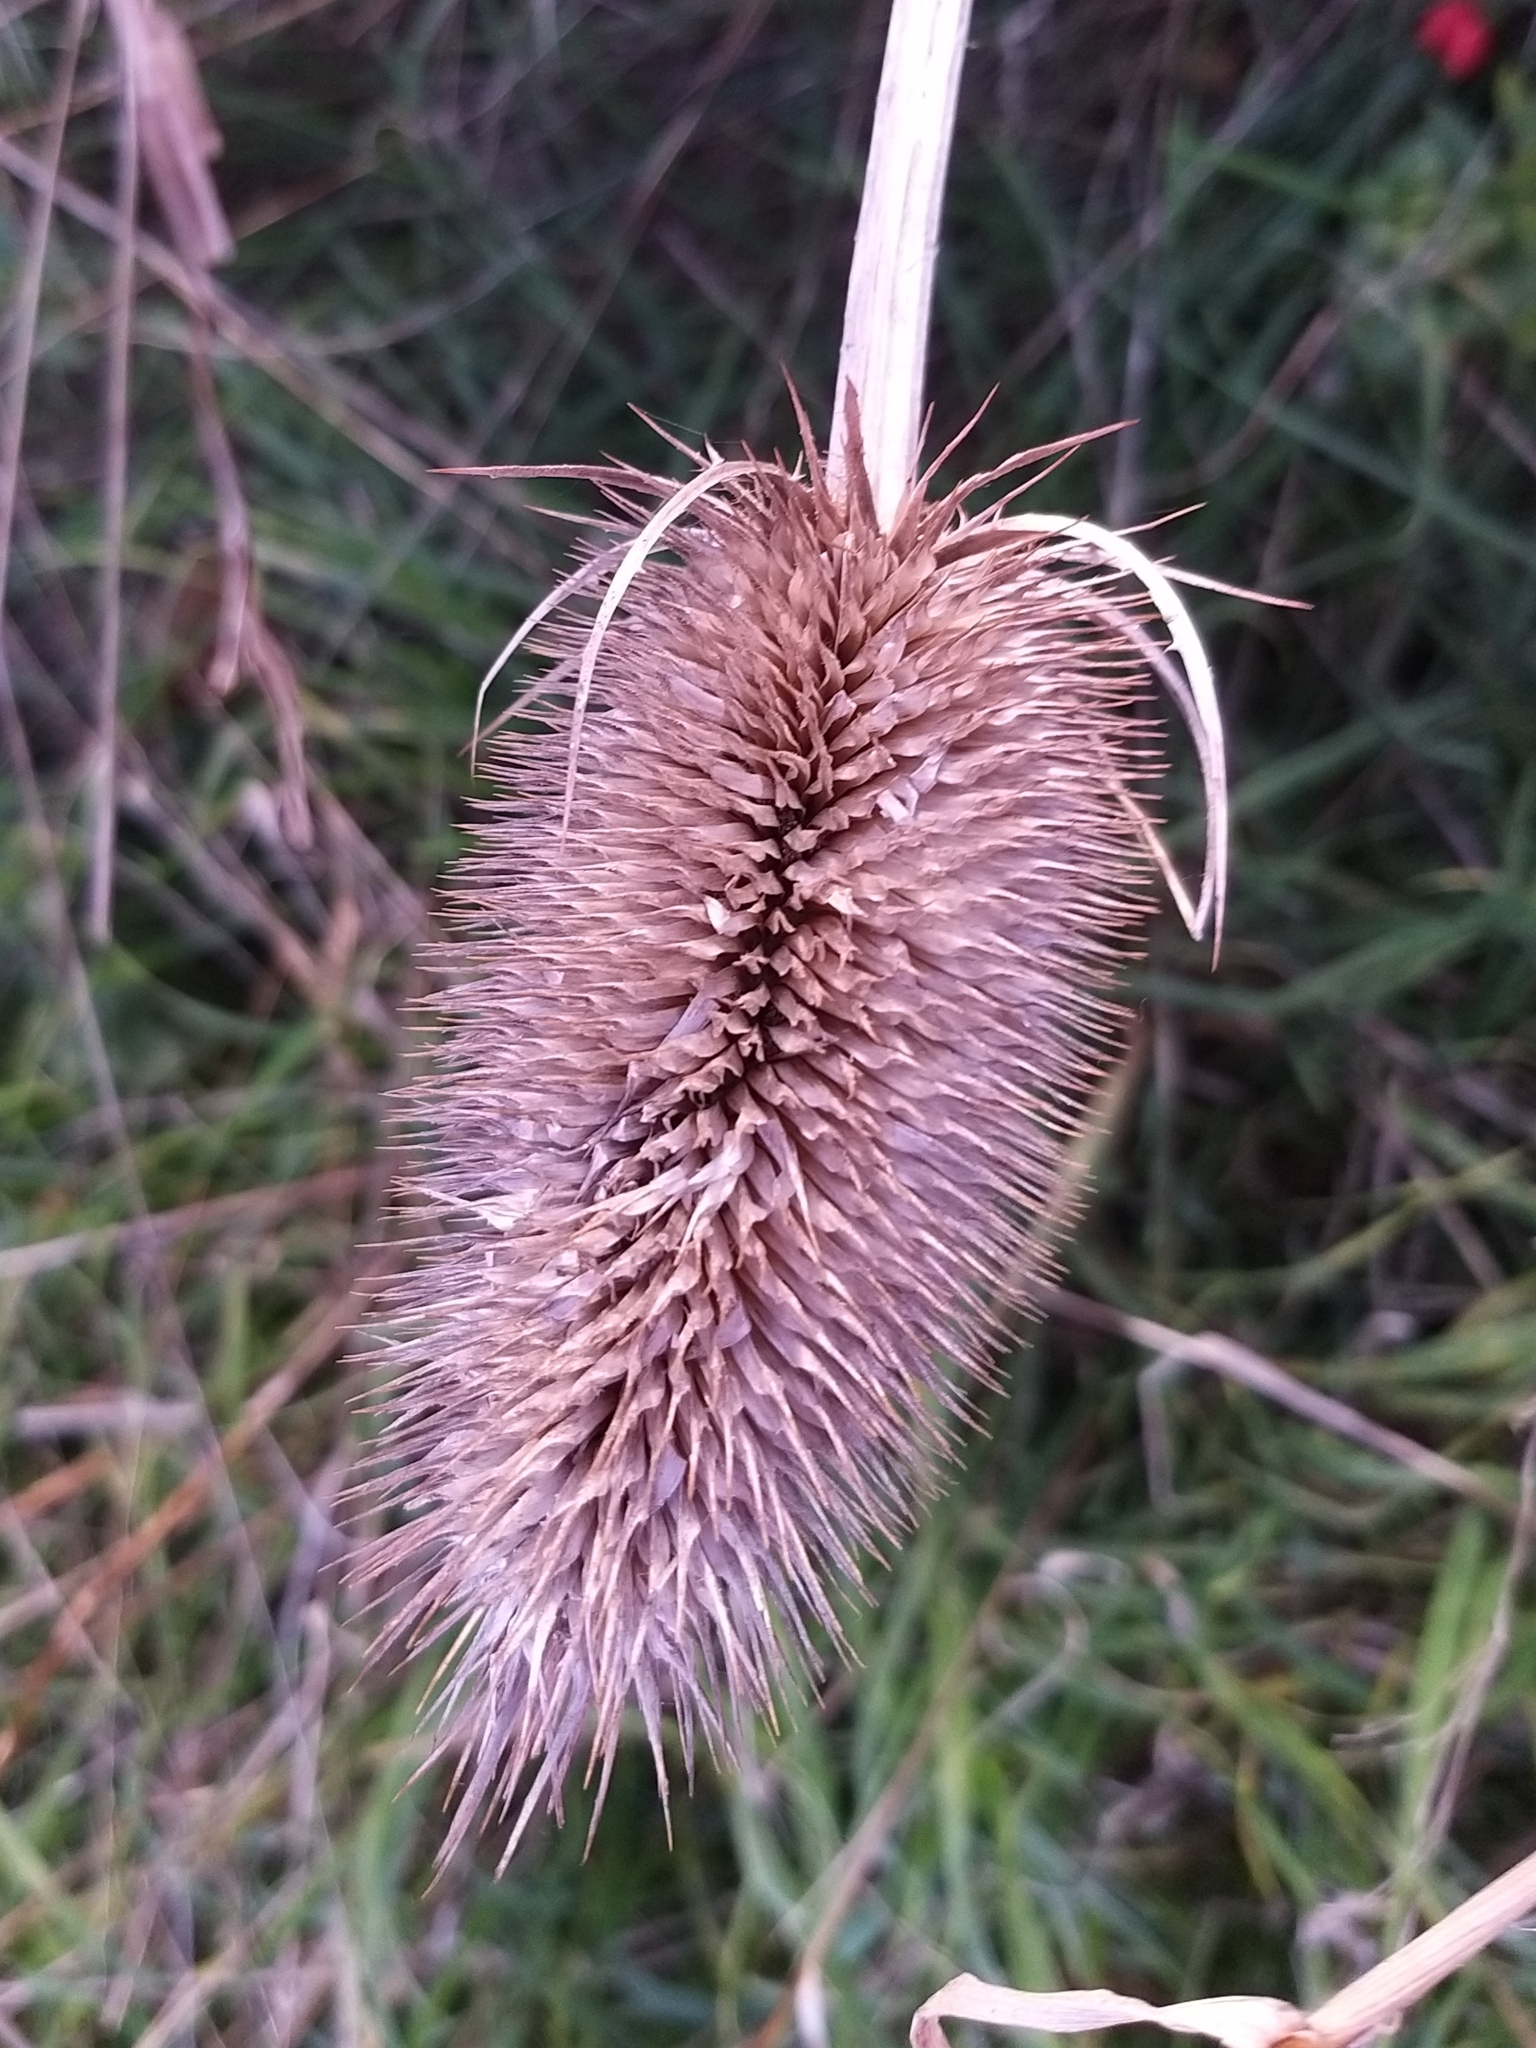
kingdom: Plantae
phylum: Tracheophyta
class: Magnoliopsida
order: Dipsacales
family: Caprifoliaceae
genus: Dipsacus
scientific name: Dipsacus fullonum
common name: Teasel
